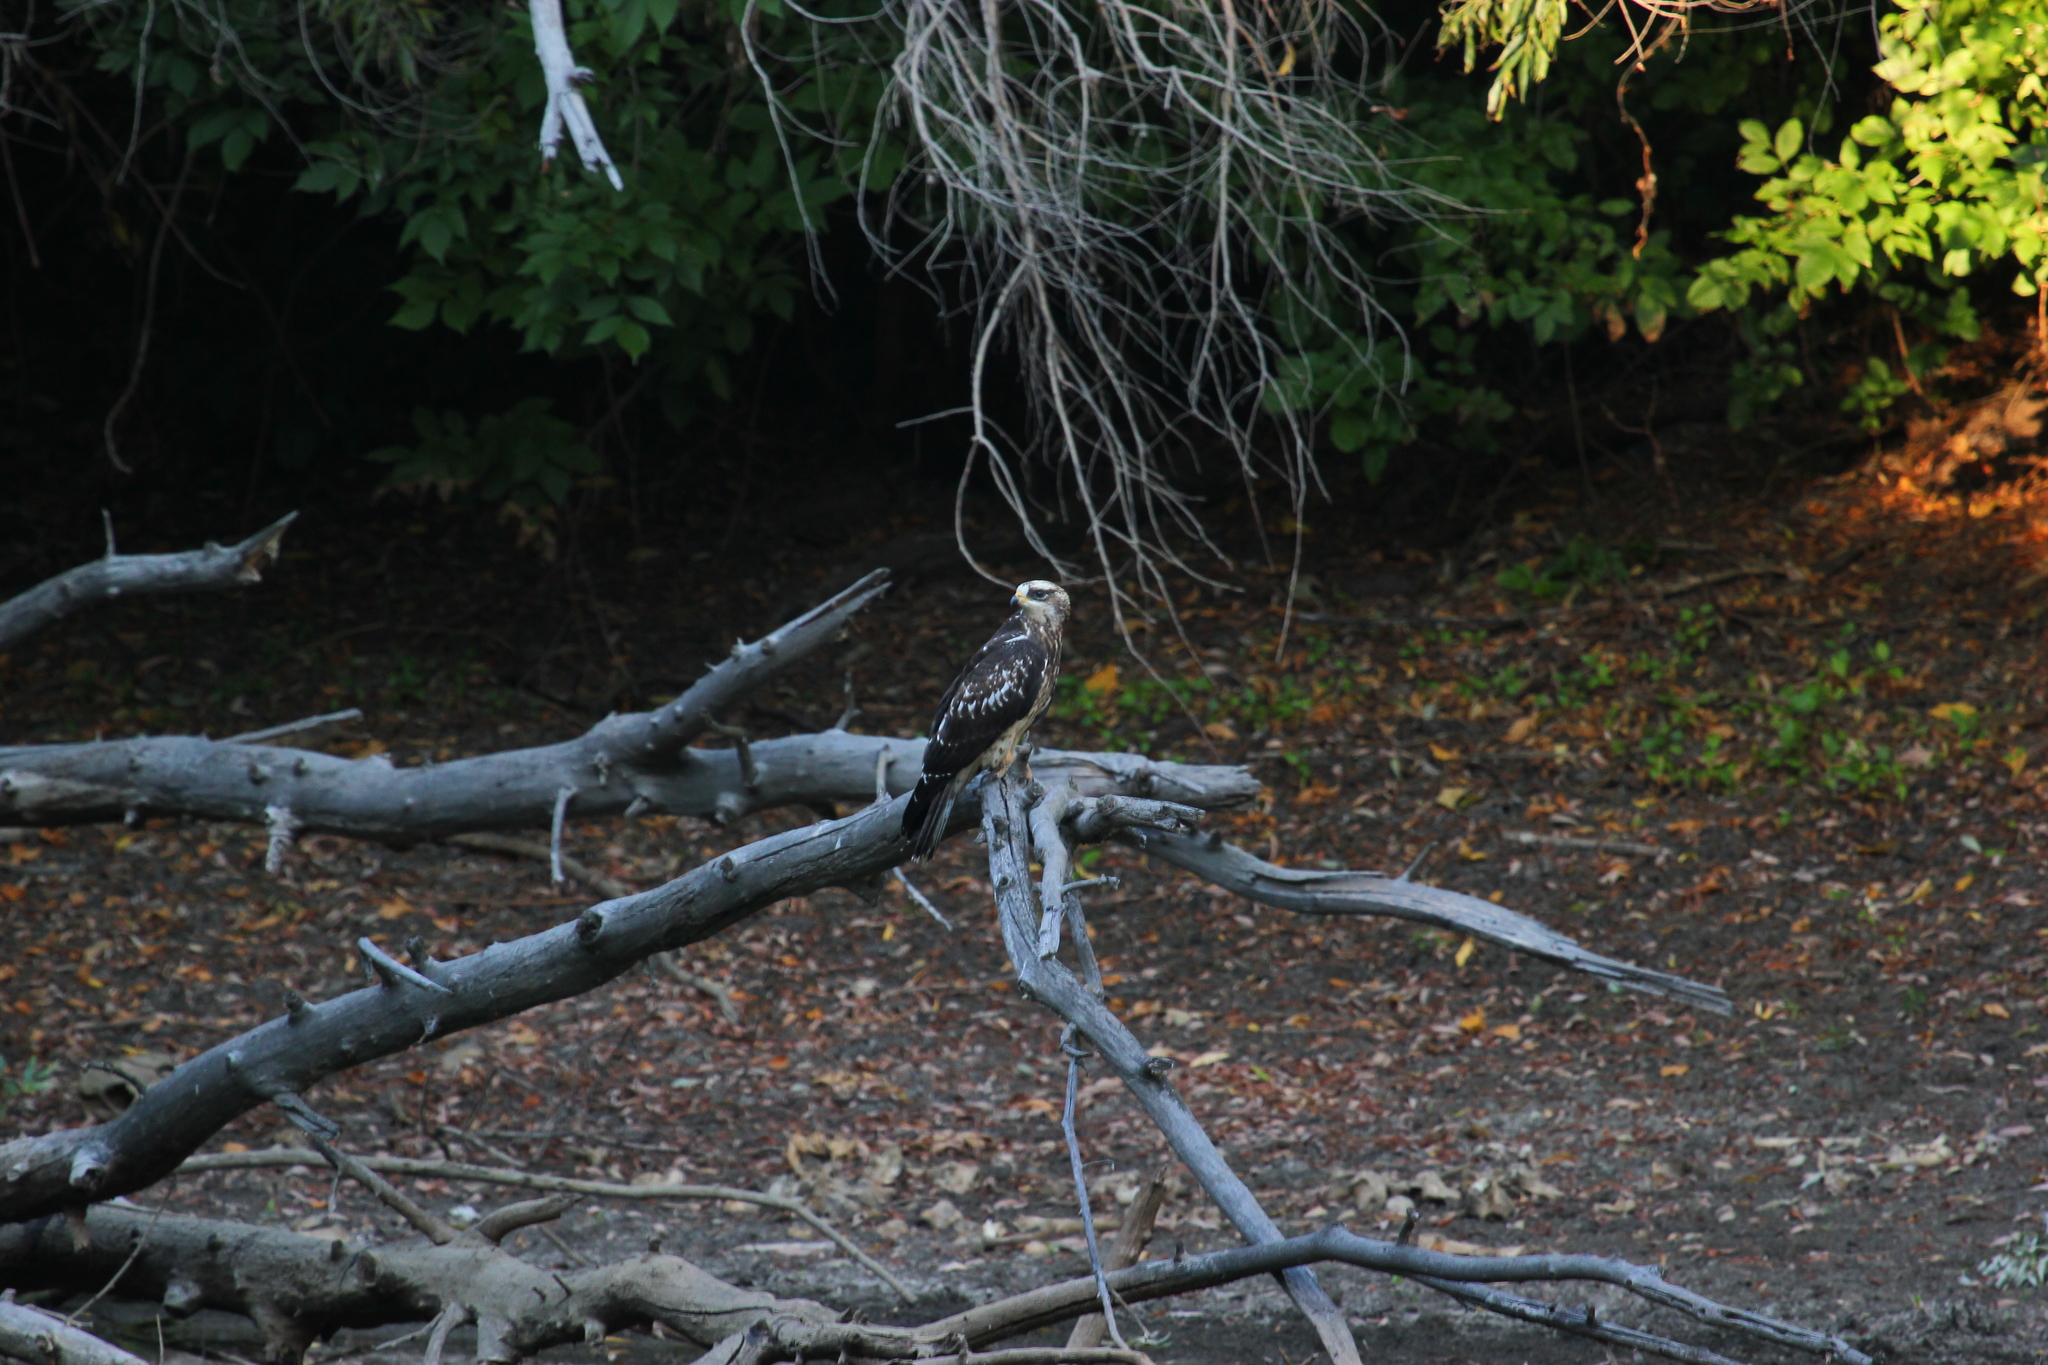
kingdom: Animalia
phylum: Chordata
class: Aves
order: Accipitriformes
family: Accipitridae
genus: Pernis
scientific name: Pernis apivorus
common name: European honey buzzard
